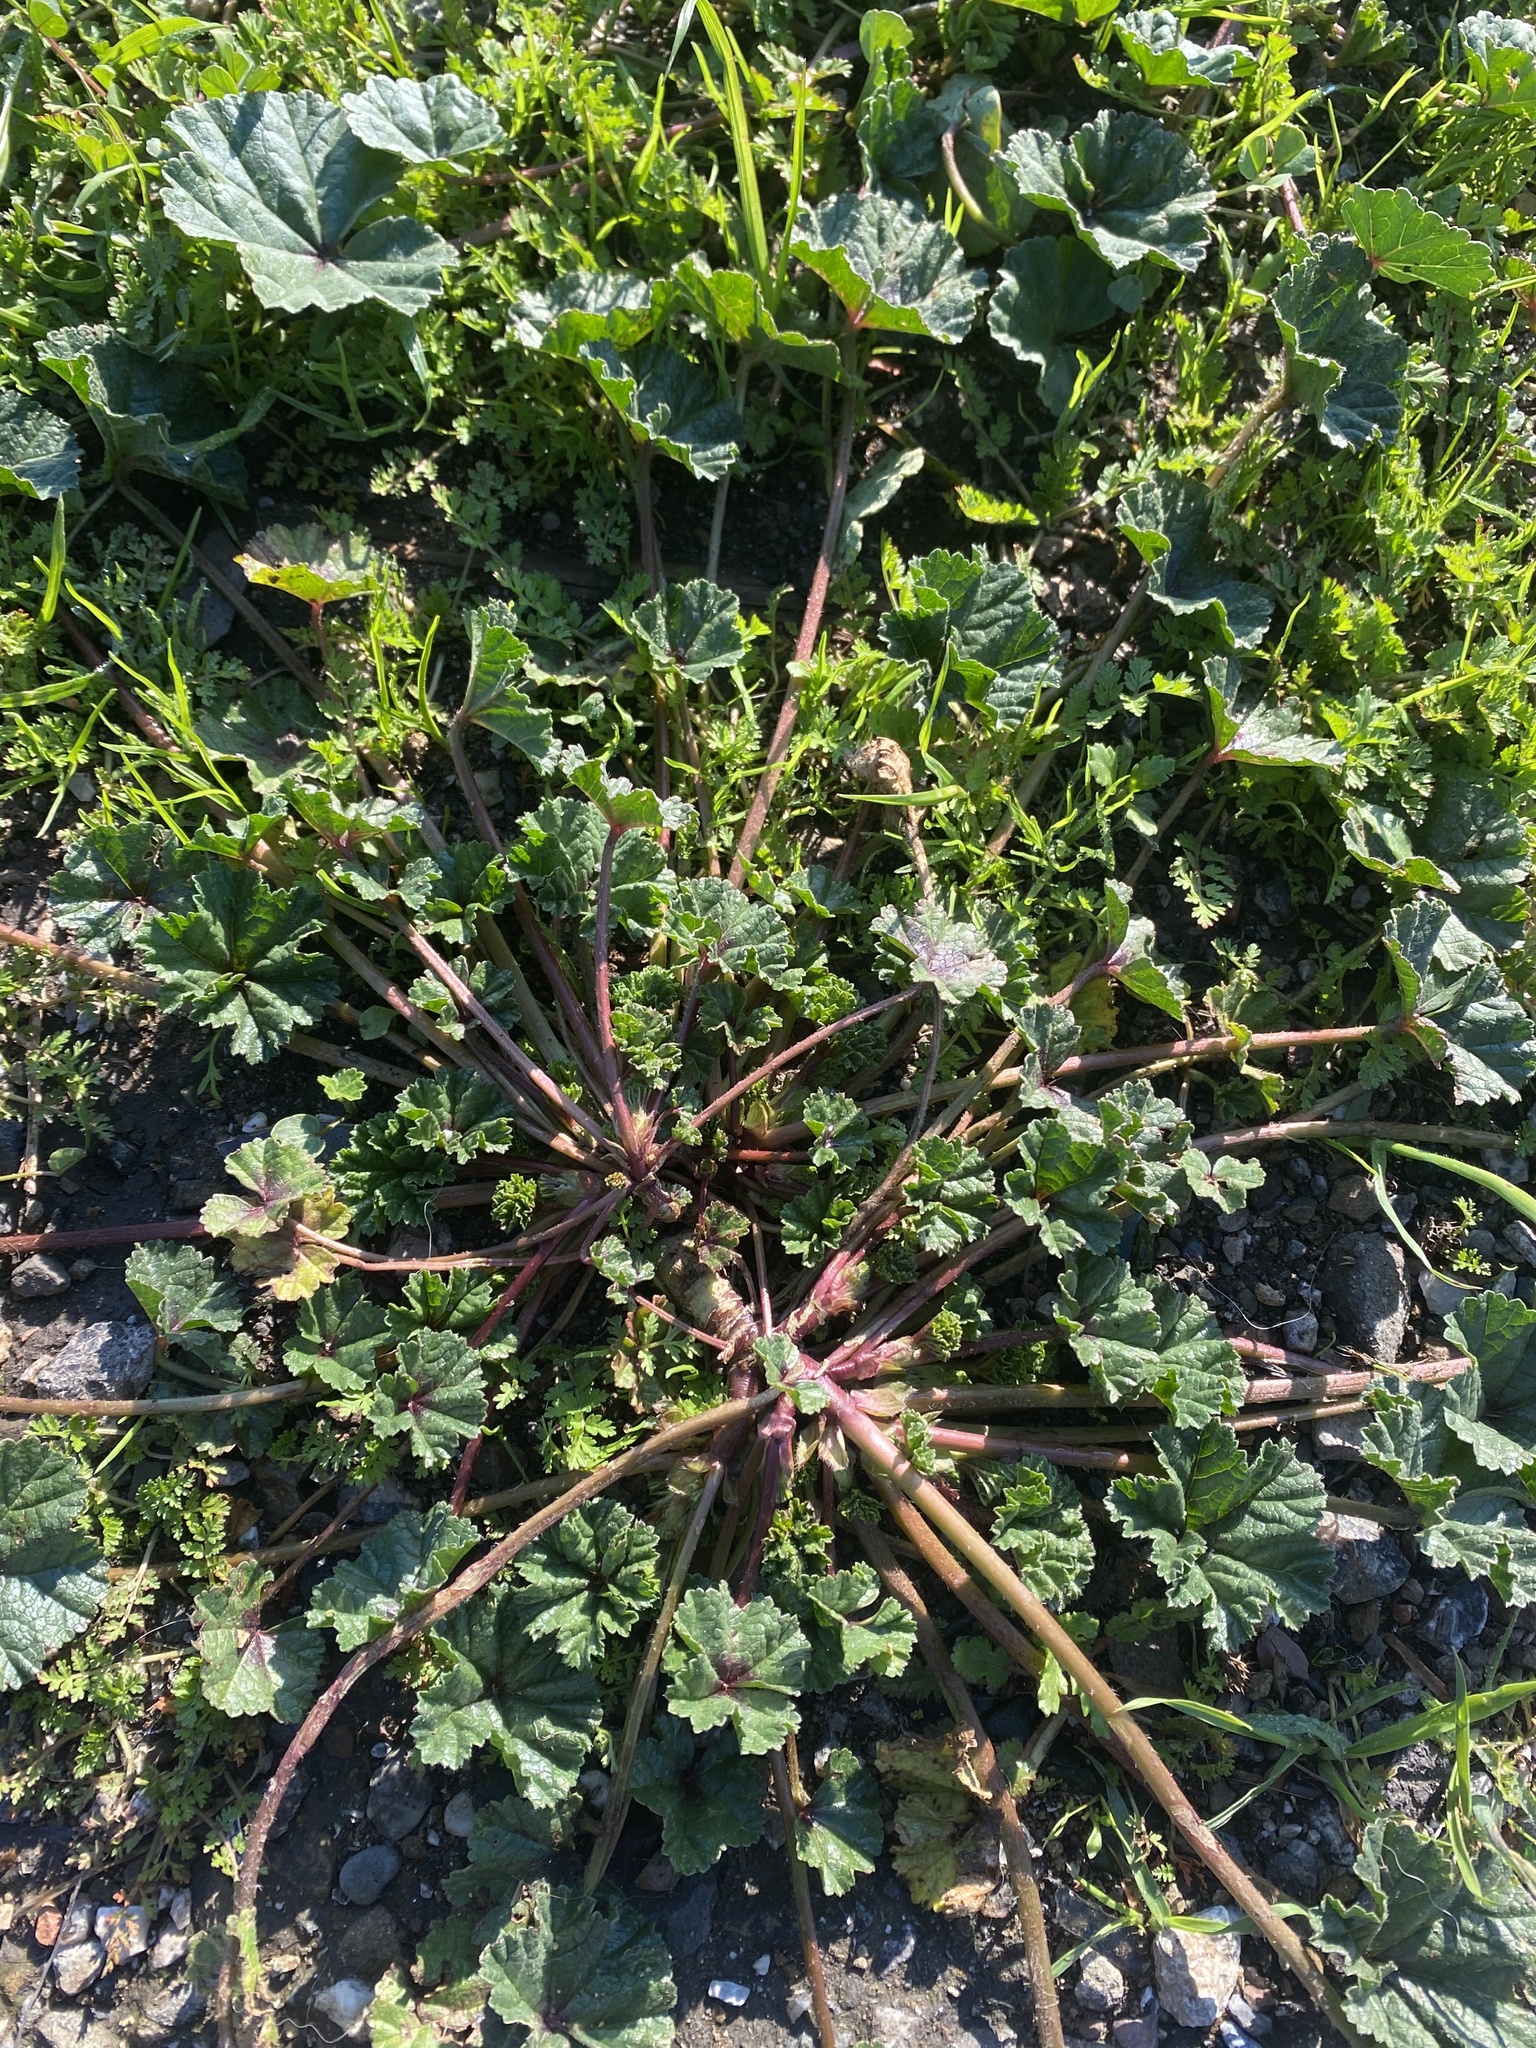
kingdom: Plantae
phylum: Tracheophyta
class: Magnoliopsida
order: Malvales
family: Malvaceae
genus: Malva
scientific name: Malva
